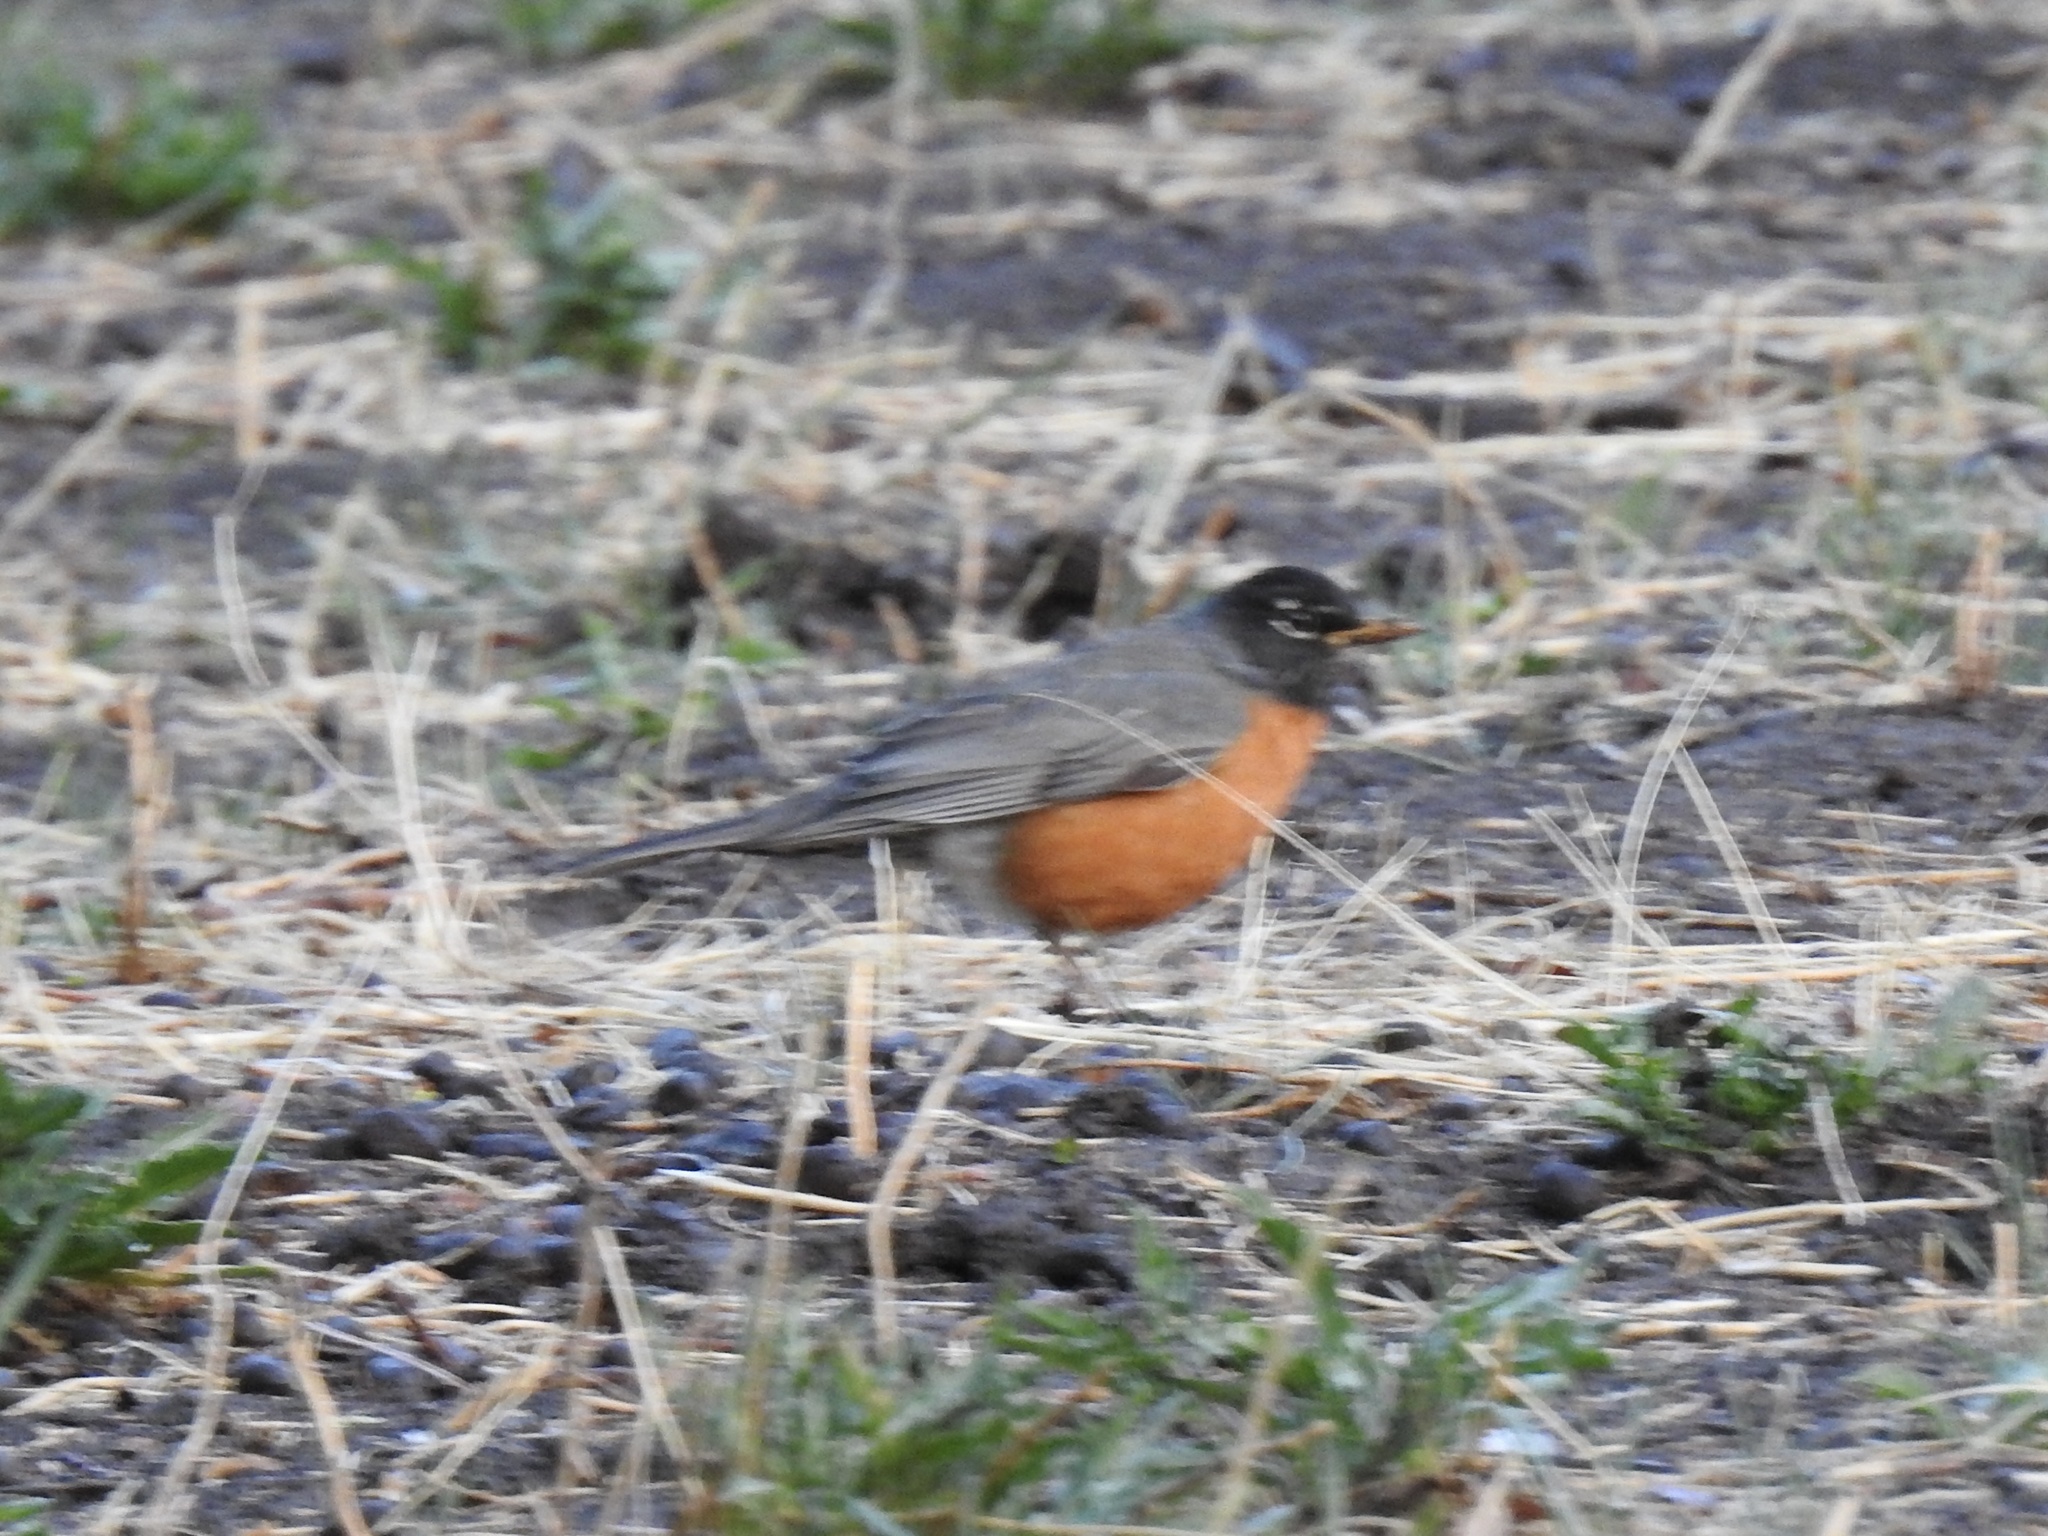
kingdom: Animalia
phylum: Chordata
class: Aves
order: Passeriformes
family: Turdidae
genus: Turdus
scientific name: Turdus migratorius
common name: American robin
